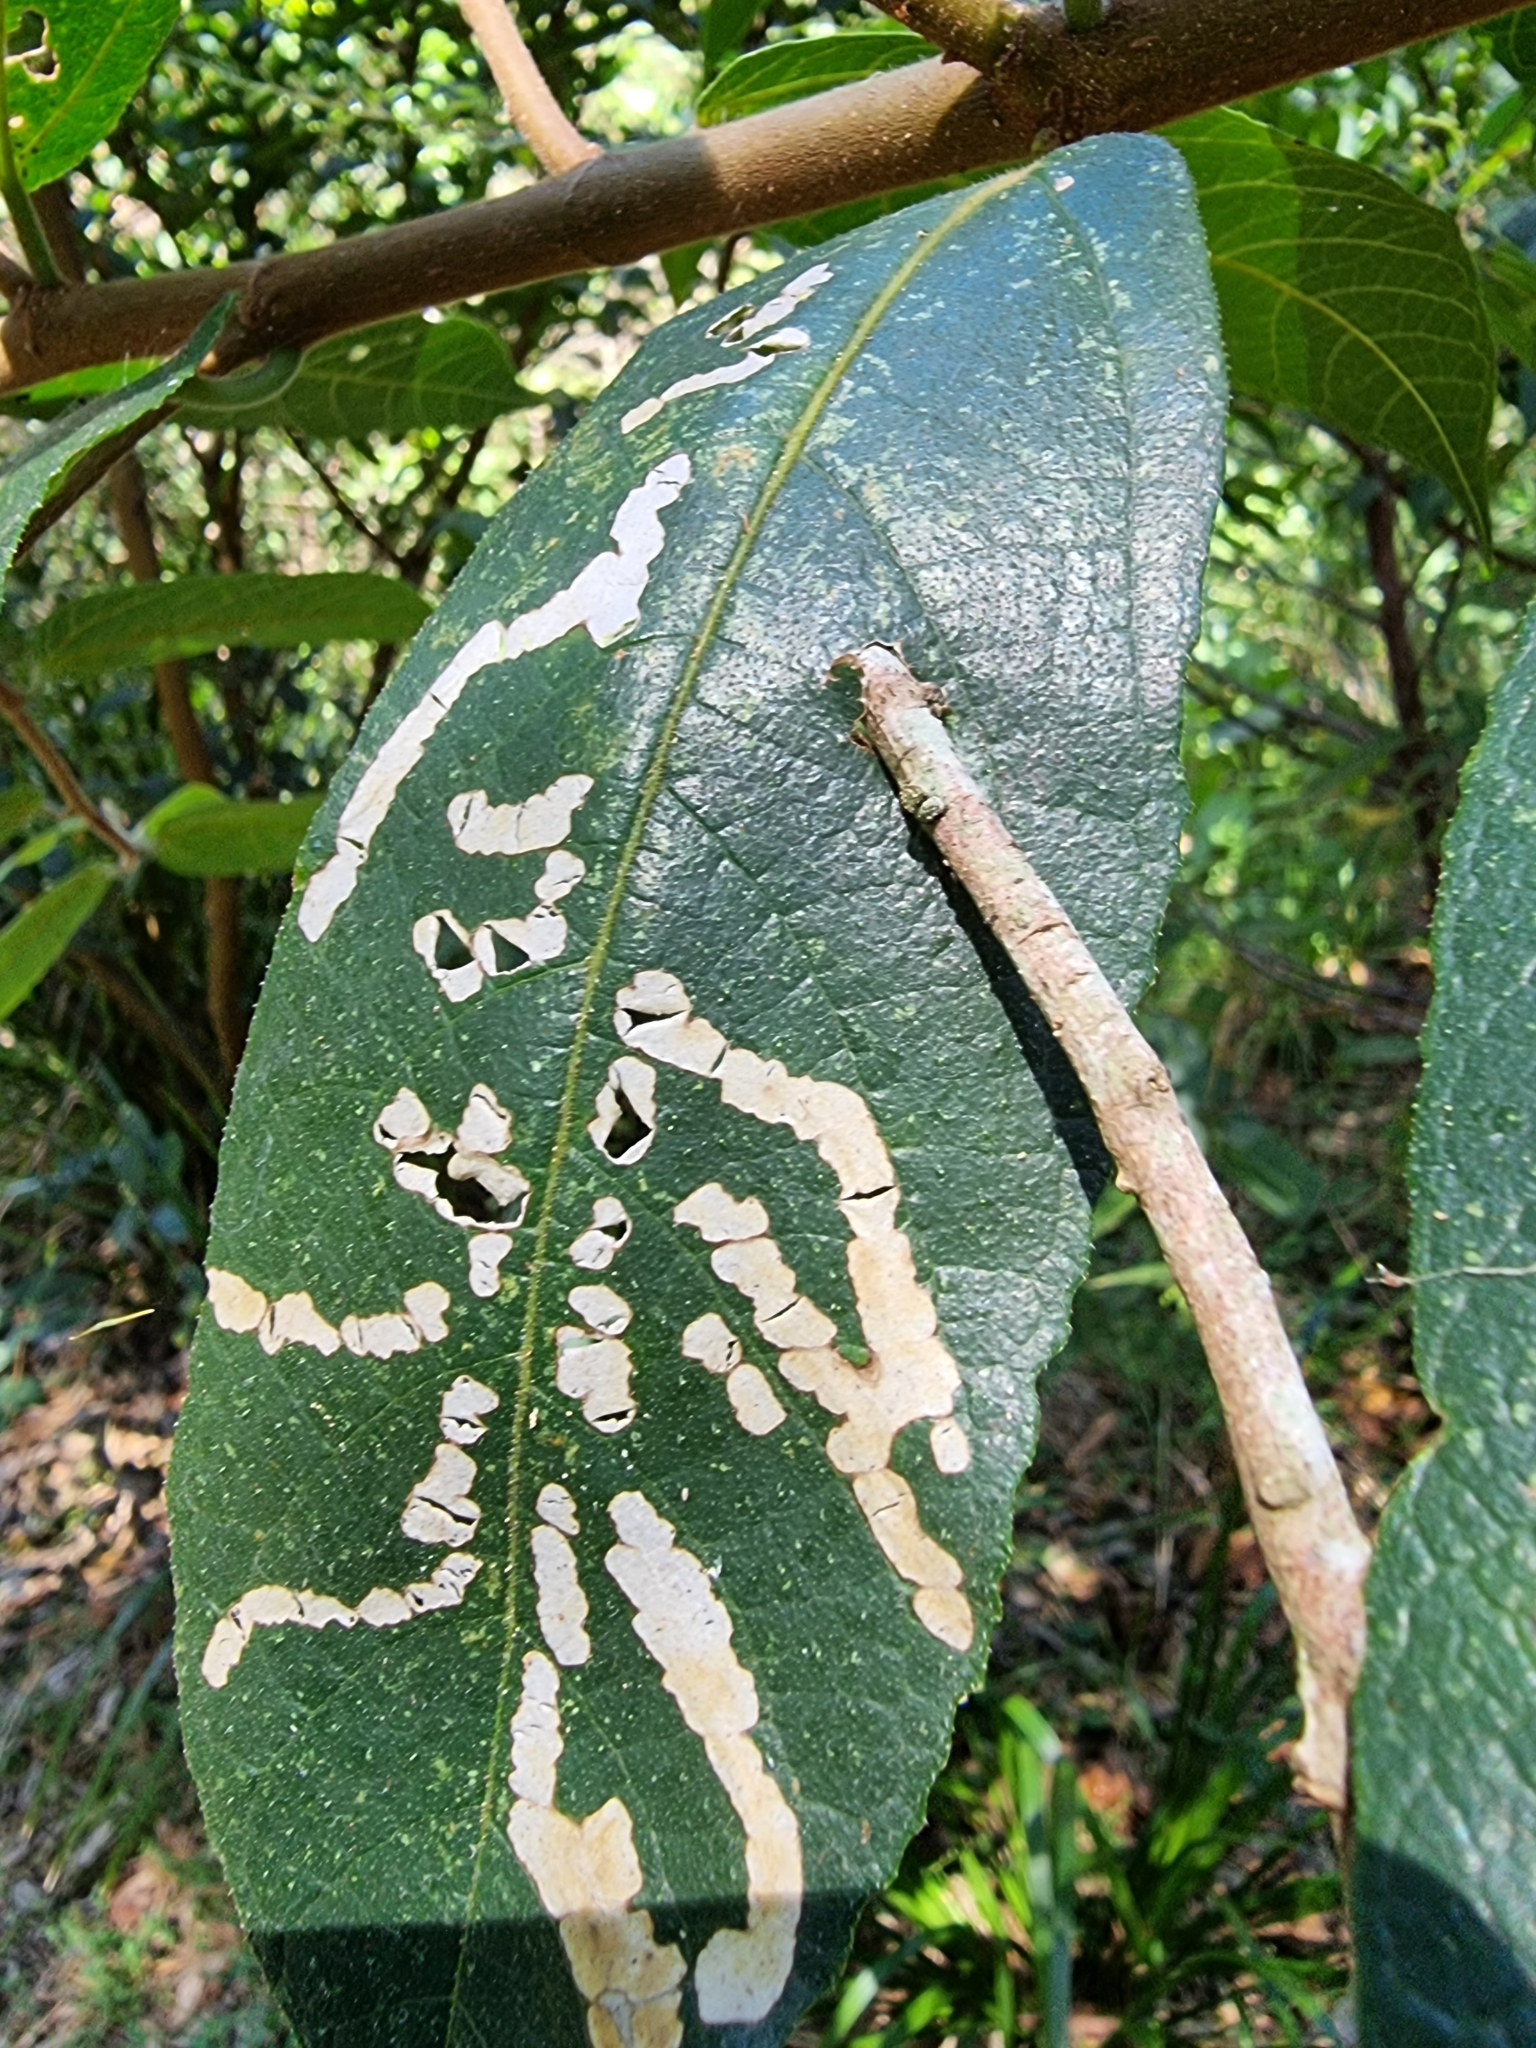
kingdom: Plantae
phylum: Tracheophyta
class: Magnoliopsida
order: Rosales
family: Moraceae
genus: Ficus
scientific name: Ficus coronata
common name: Creek sandpaper fig
